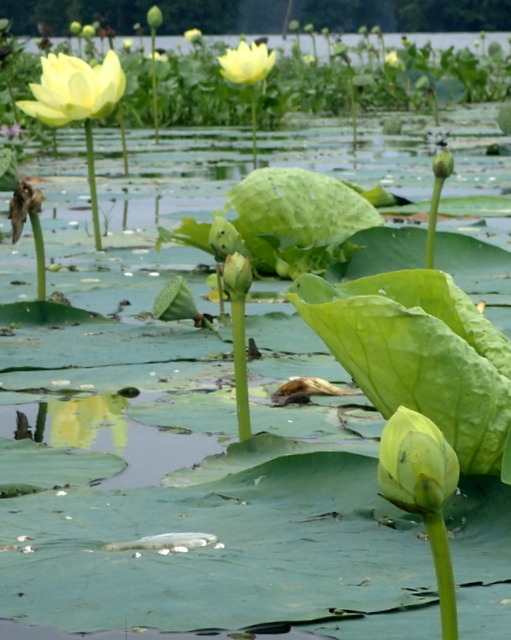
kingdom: Plantae
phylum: Tracheophyta
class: Magnoliopsida
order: Proteales
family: Nelumbonaceae
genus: Nelumbo
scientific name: Nelumbo lutea
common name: American lotus
